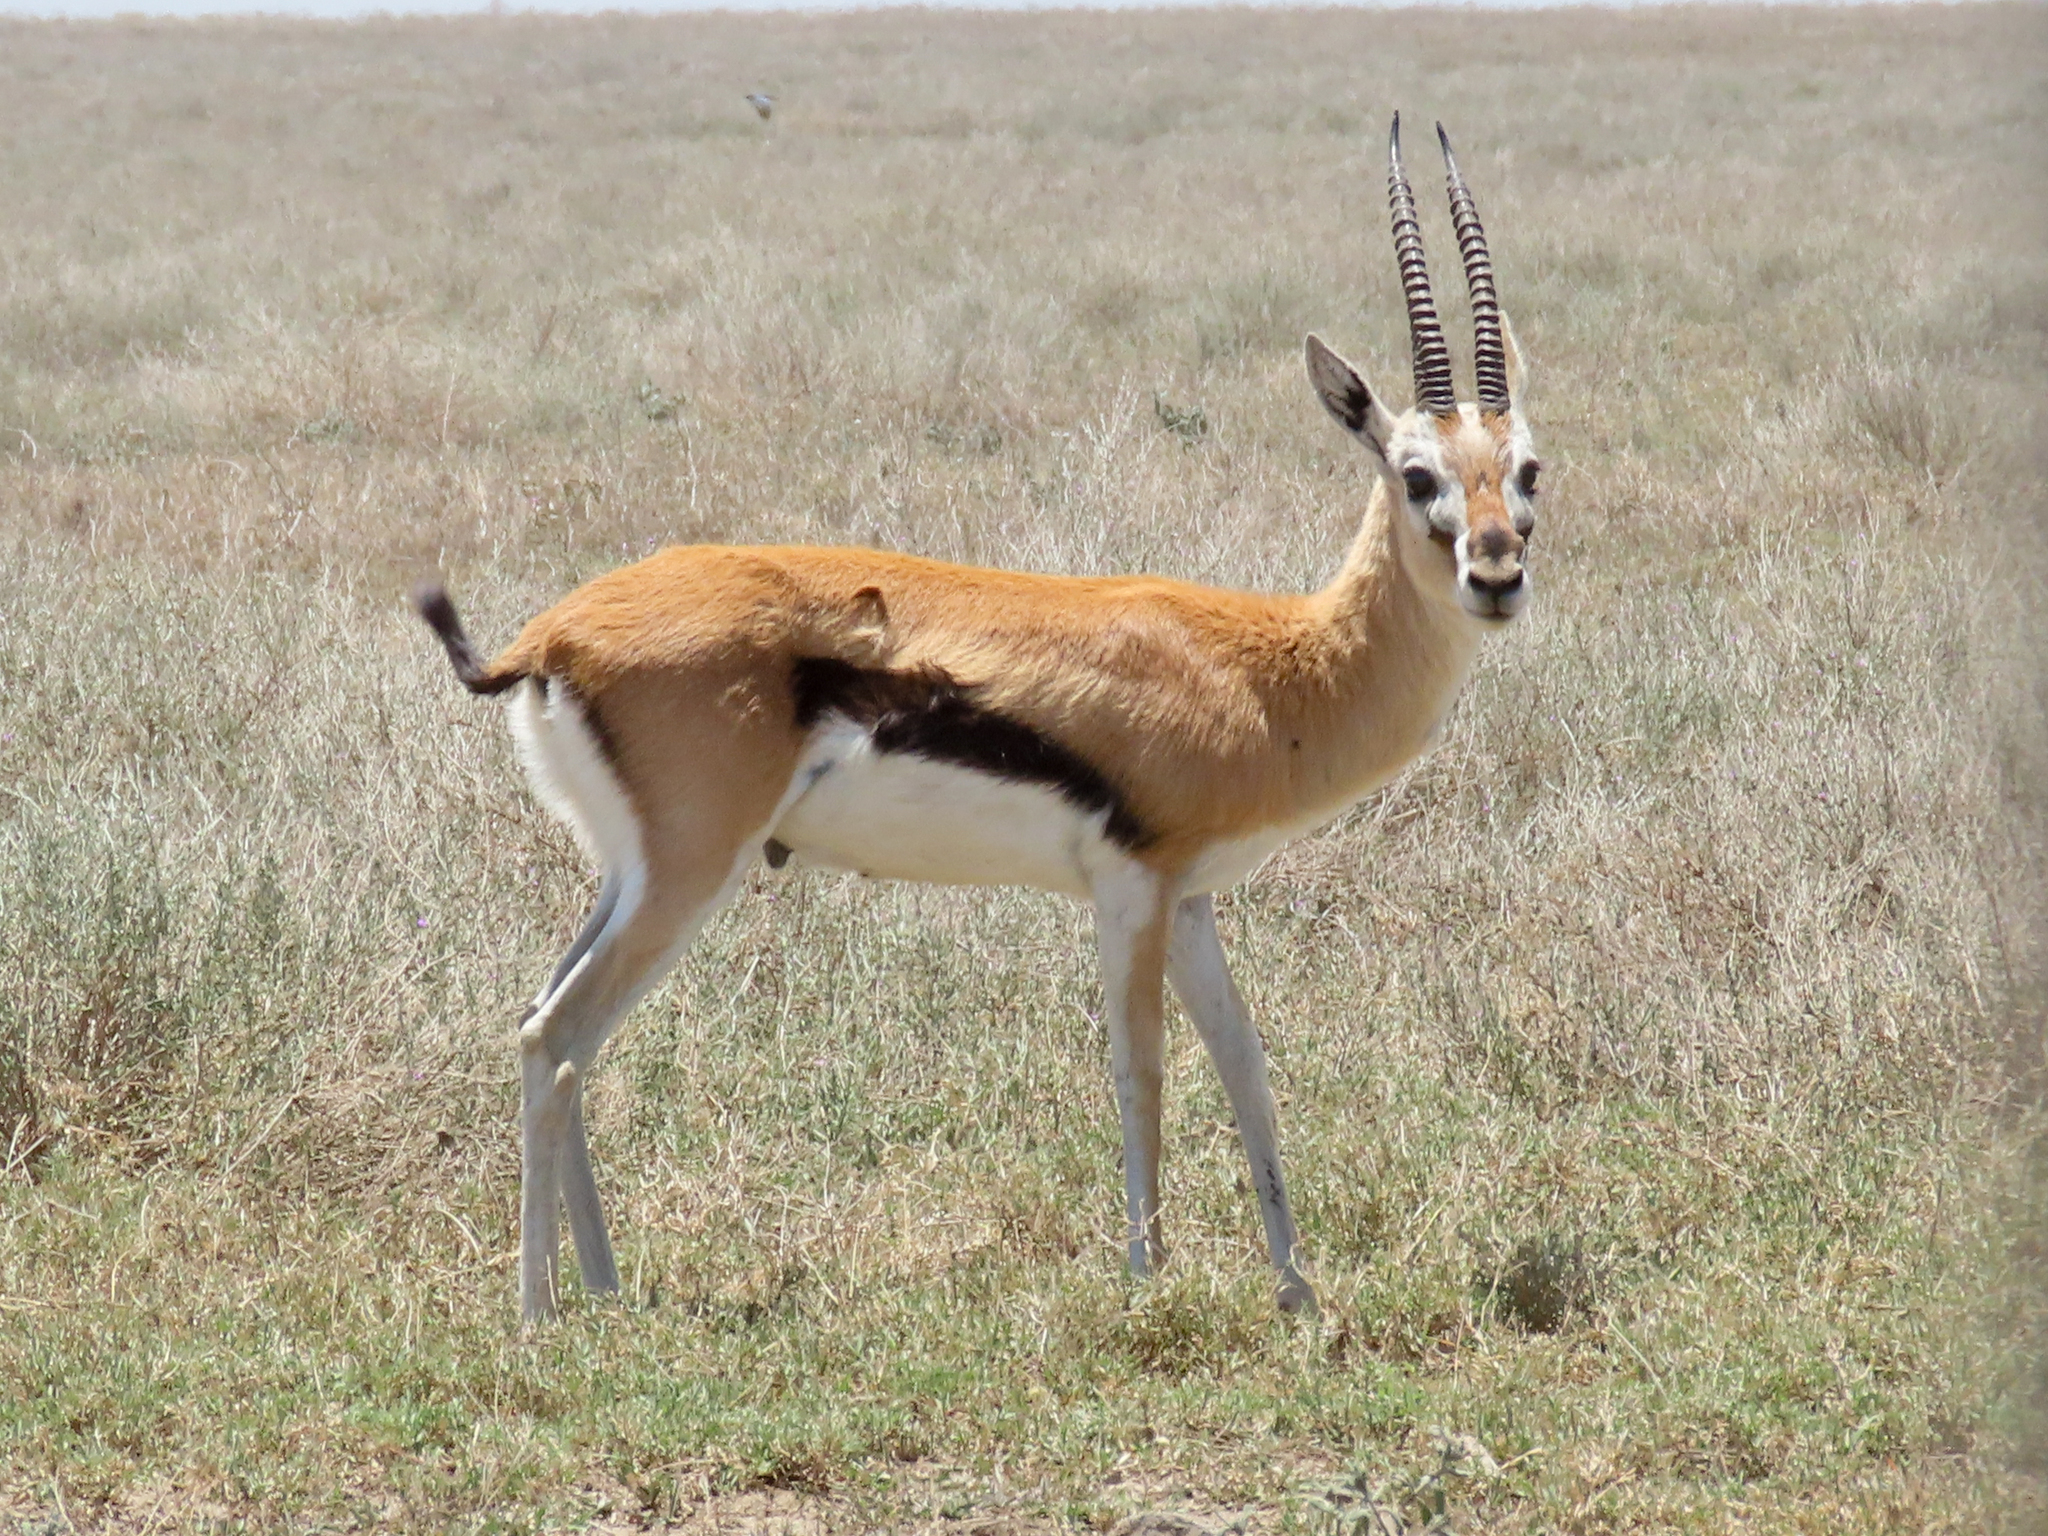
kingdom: Animalia
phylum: Chordata
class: Mammalia
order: Artiodactyla
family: Bovidae
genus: Eudorcas
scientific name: Eudorcas thomsonii
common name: Thomson's gazelle
